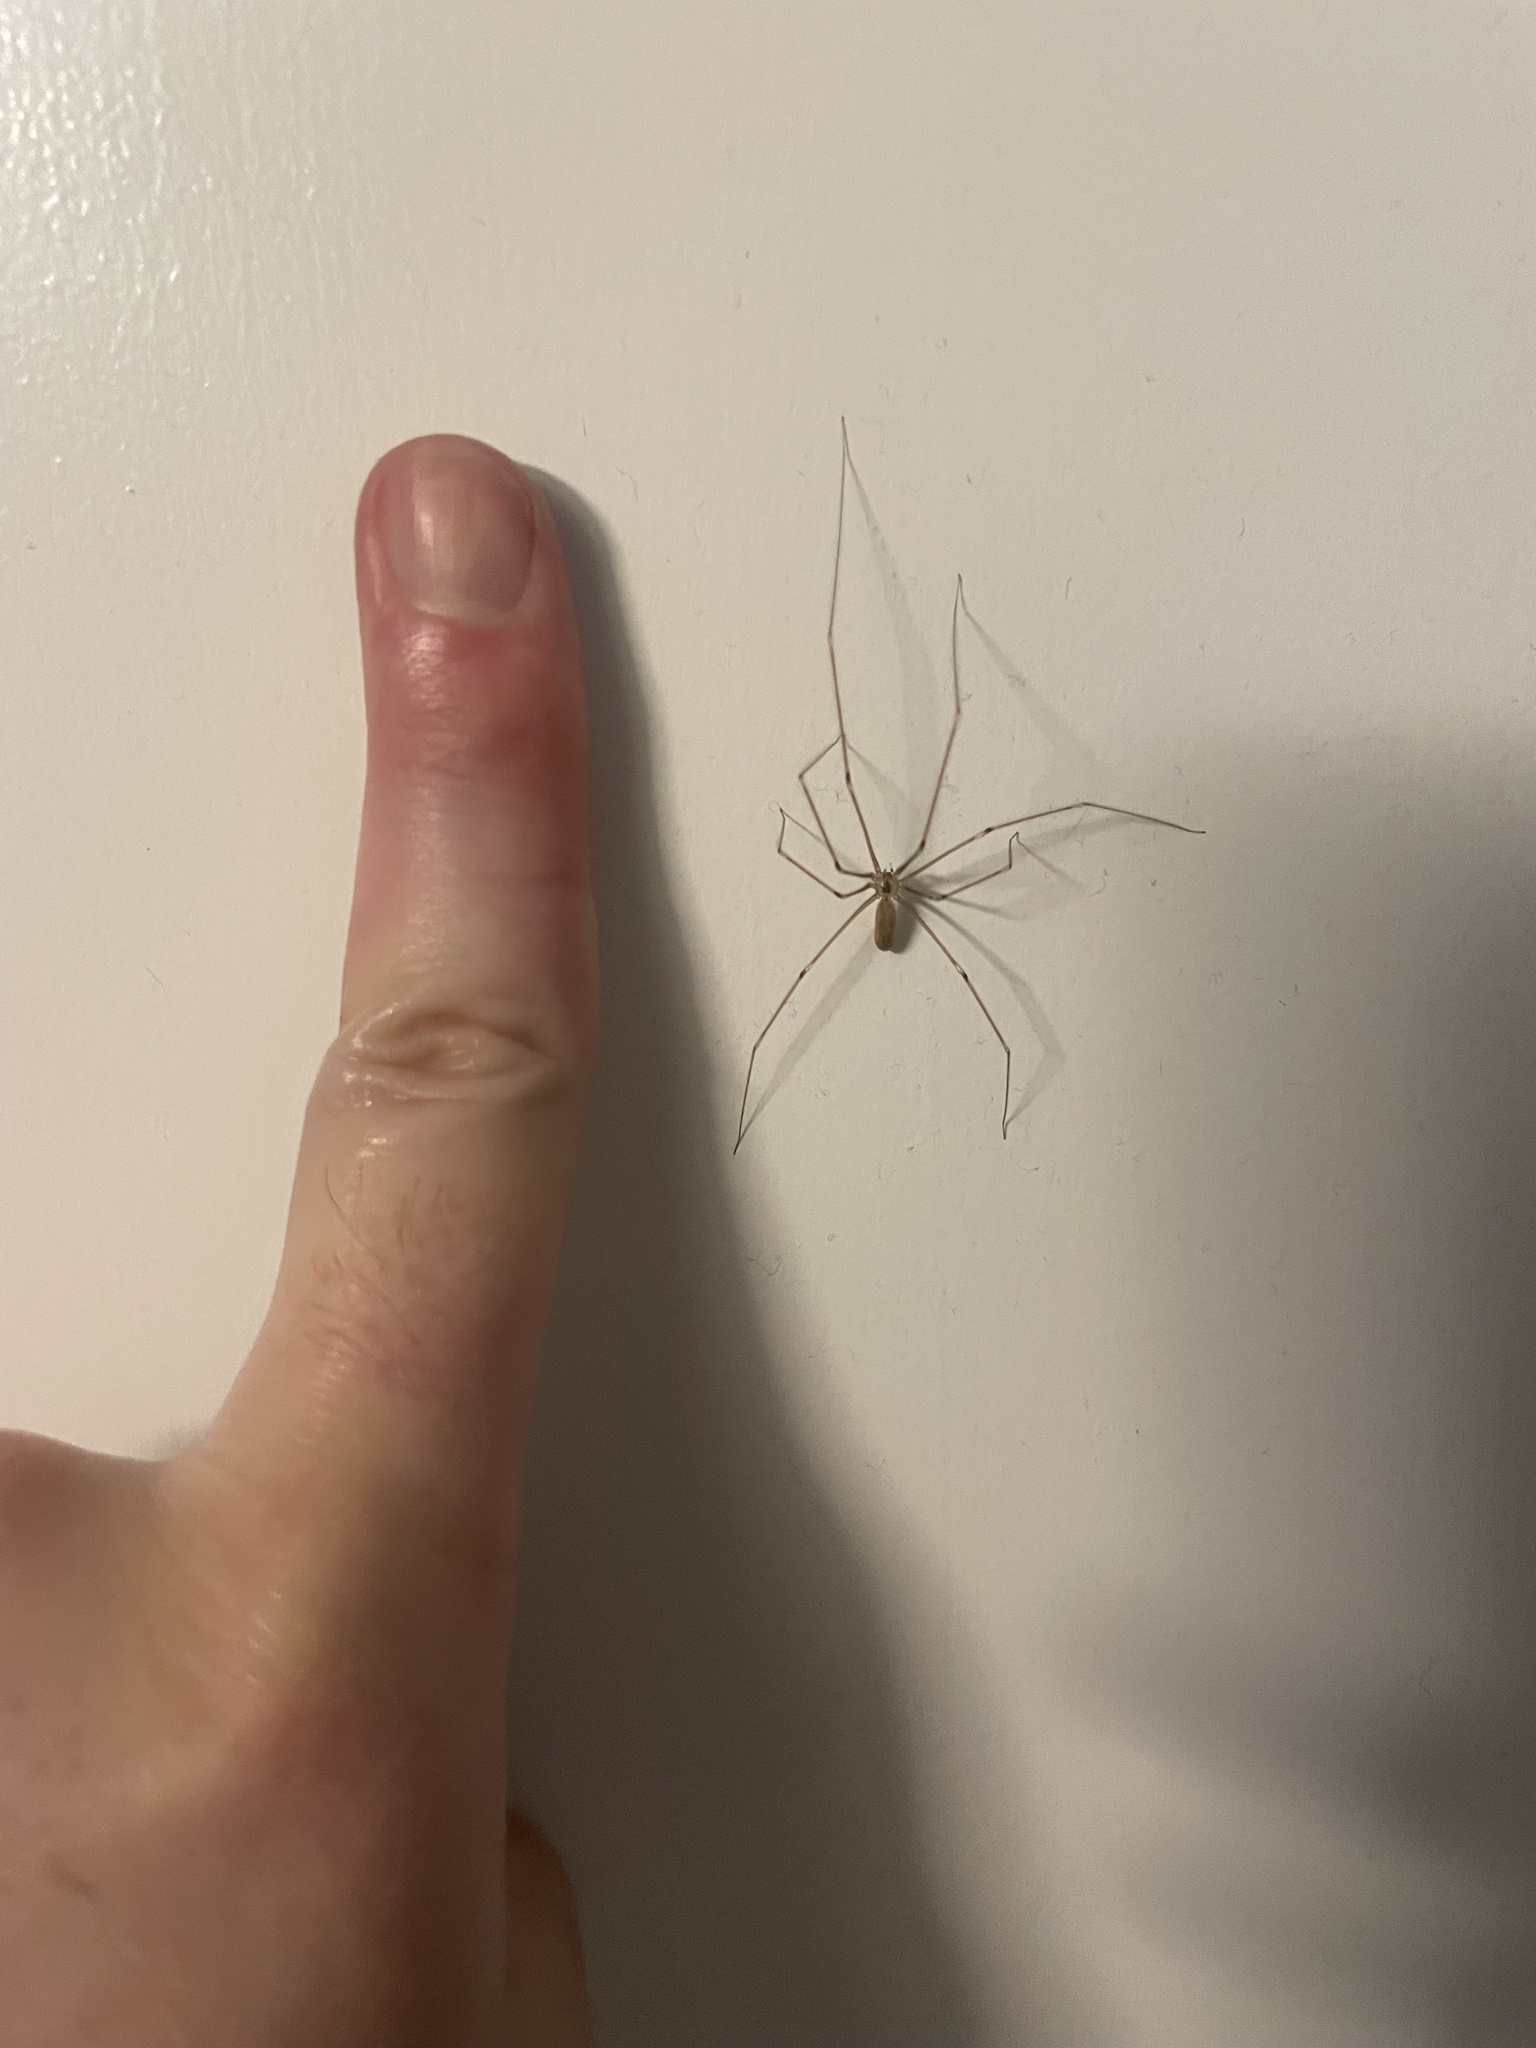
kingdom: Animalia
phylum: Arthropoda
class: Arachnida
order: Araneae
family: Pholcidae
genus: Pholcus
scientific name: Pholcus phalangioides
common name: Longbodied cellar spider
